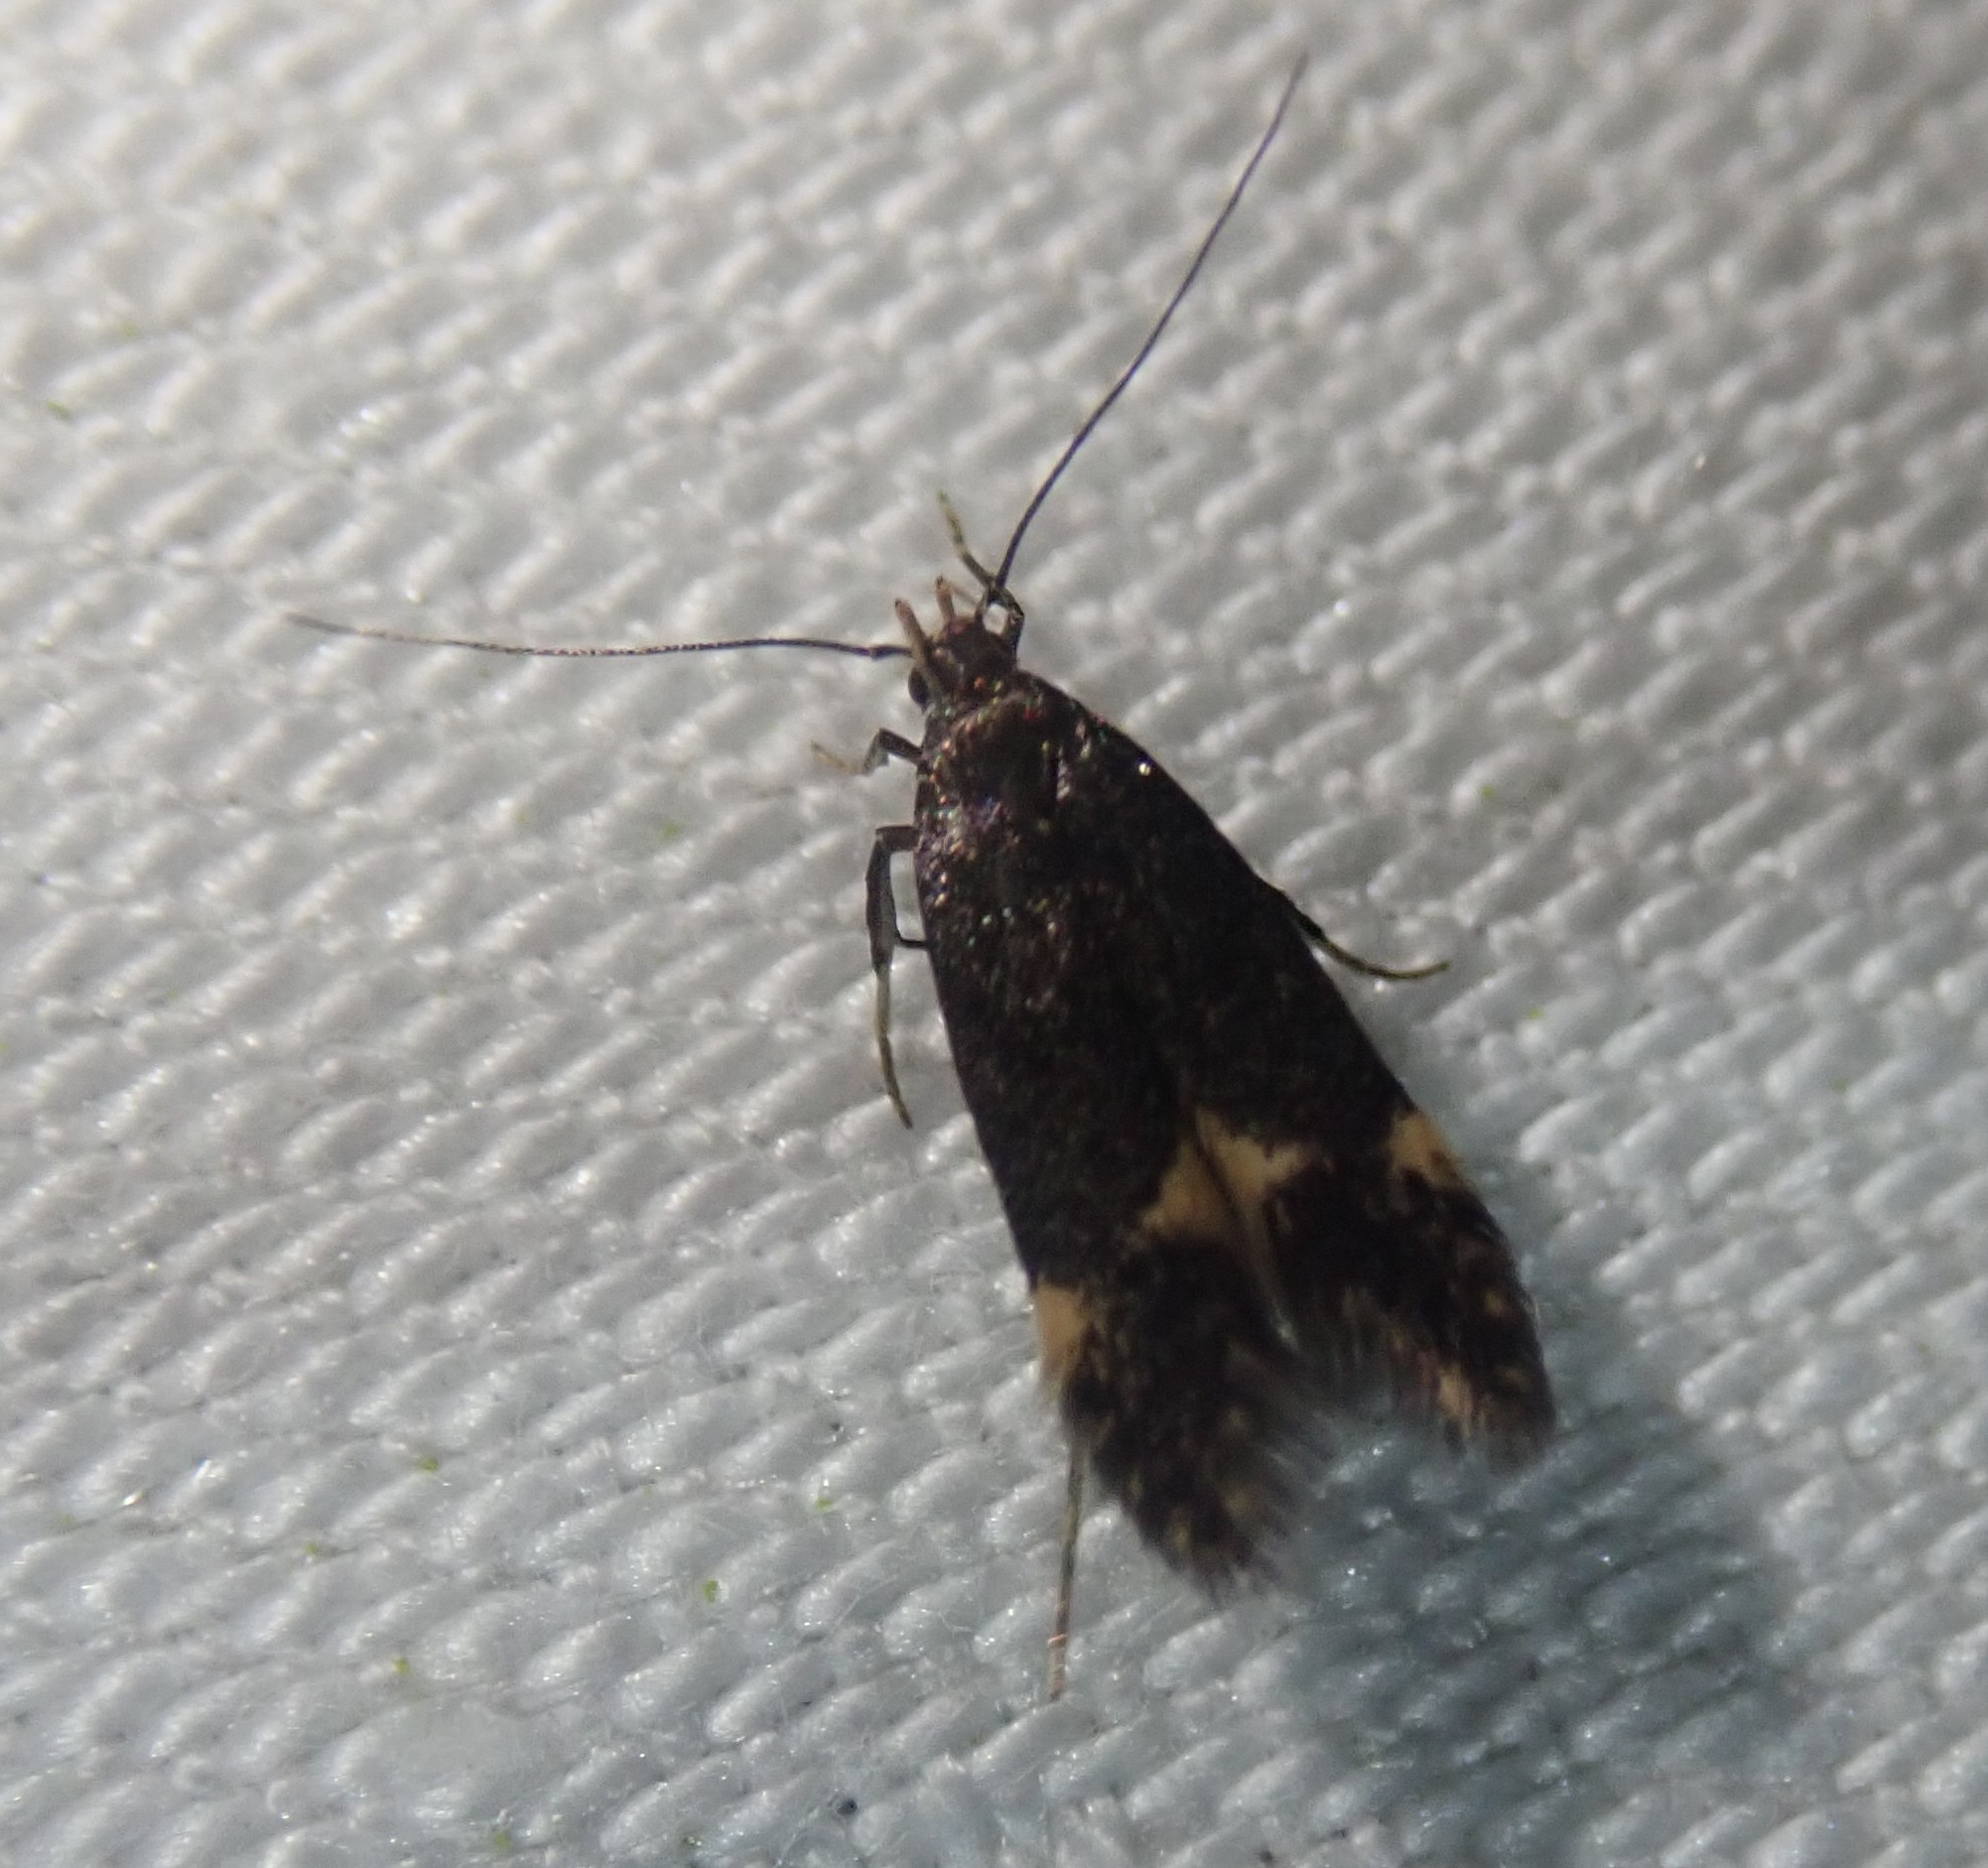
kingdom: Animalia
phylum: Arthropoda
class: Insecta
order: Lepidoptera
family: Gelechiidae
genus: Oxypteryx
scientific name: Oxypteryx atrella
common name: Two-spotted neb
